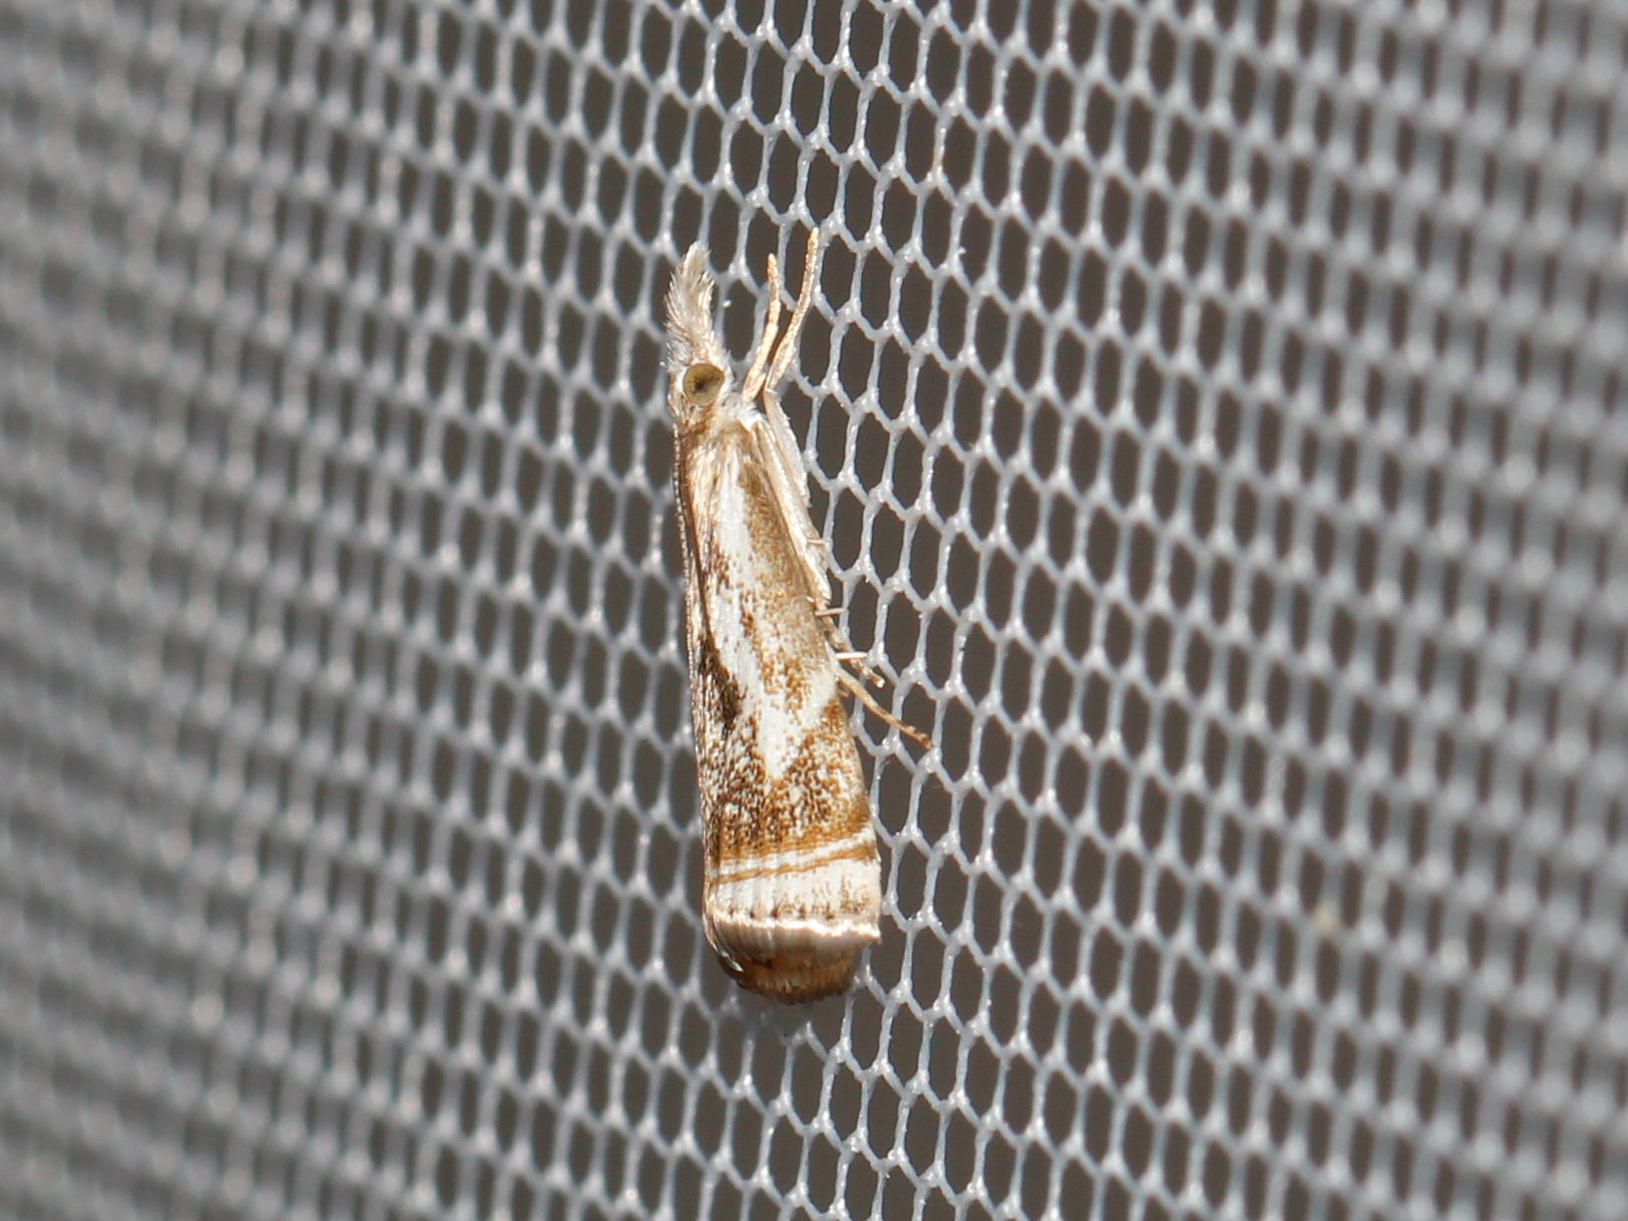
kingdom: Animalia
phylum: Arthropoda
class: Insecta
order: Lepidoptera
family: Crambidae
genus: Microcrambus
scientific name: Microcrambus elegans
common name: Elegant grass-veneer
